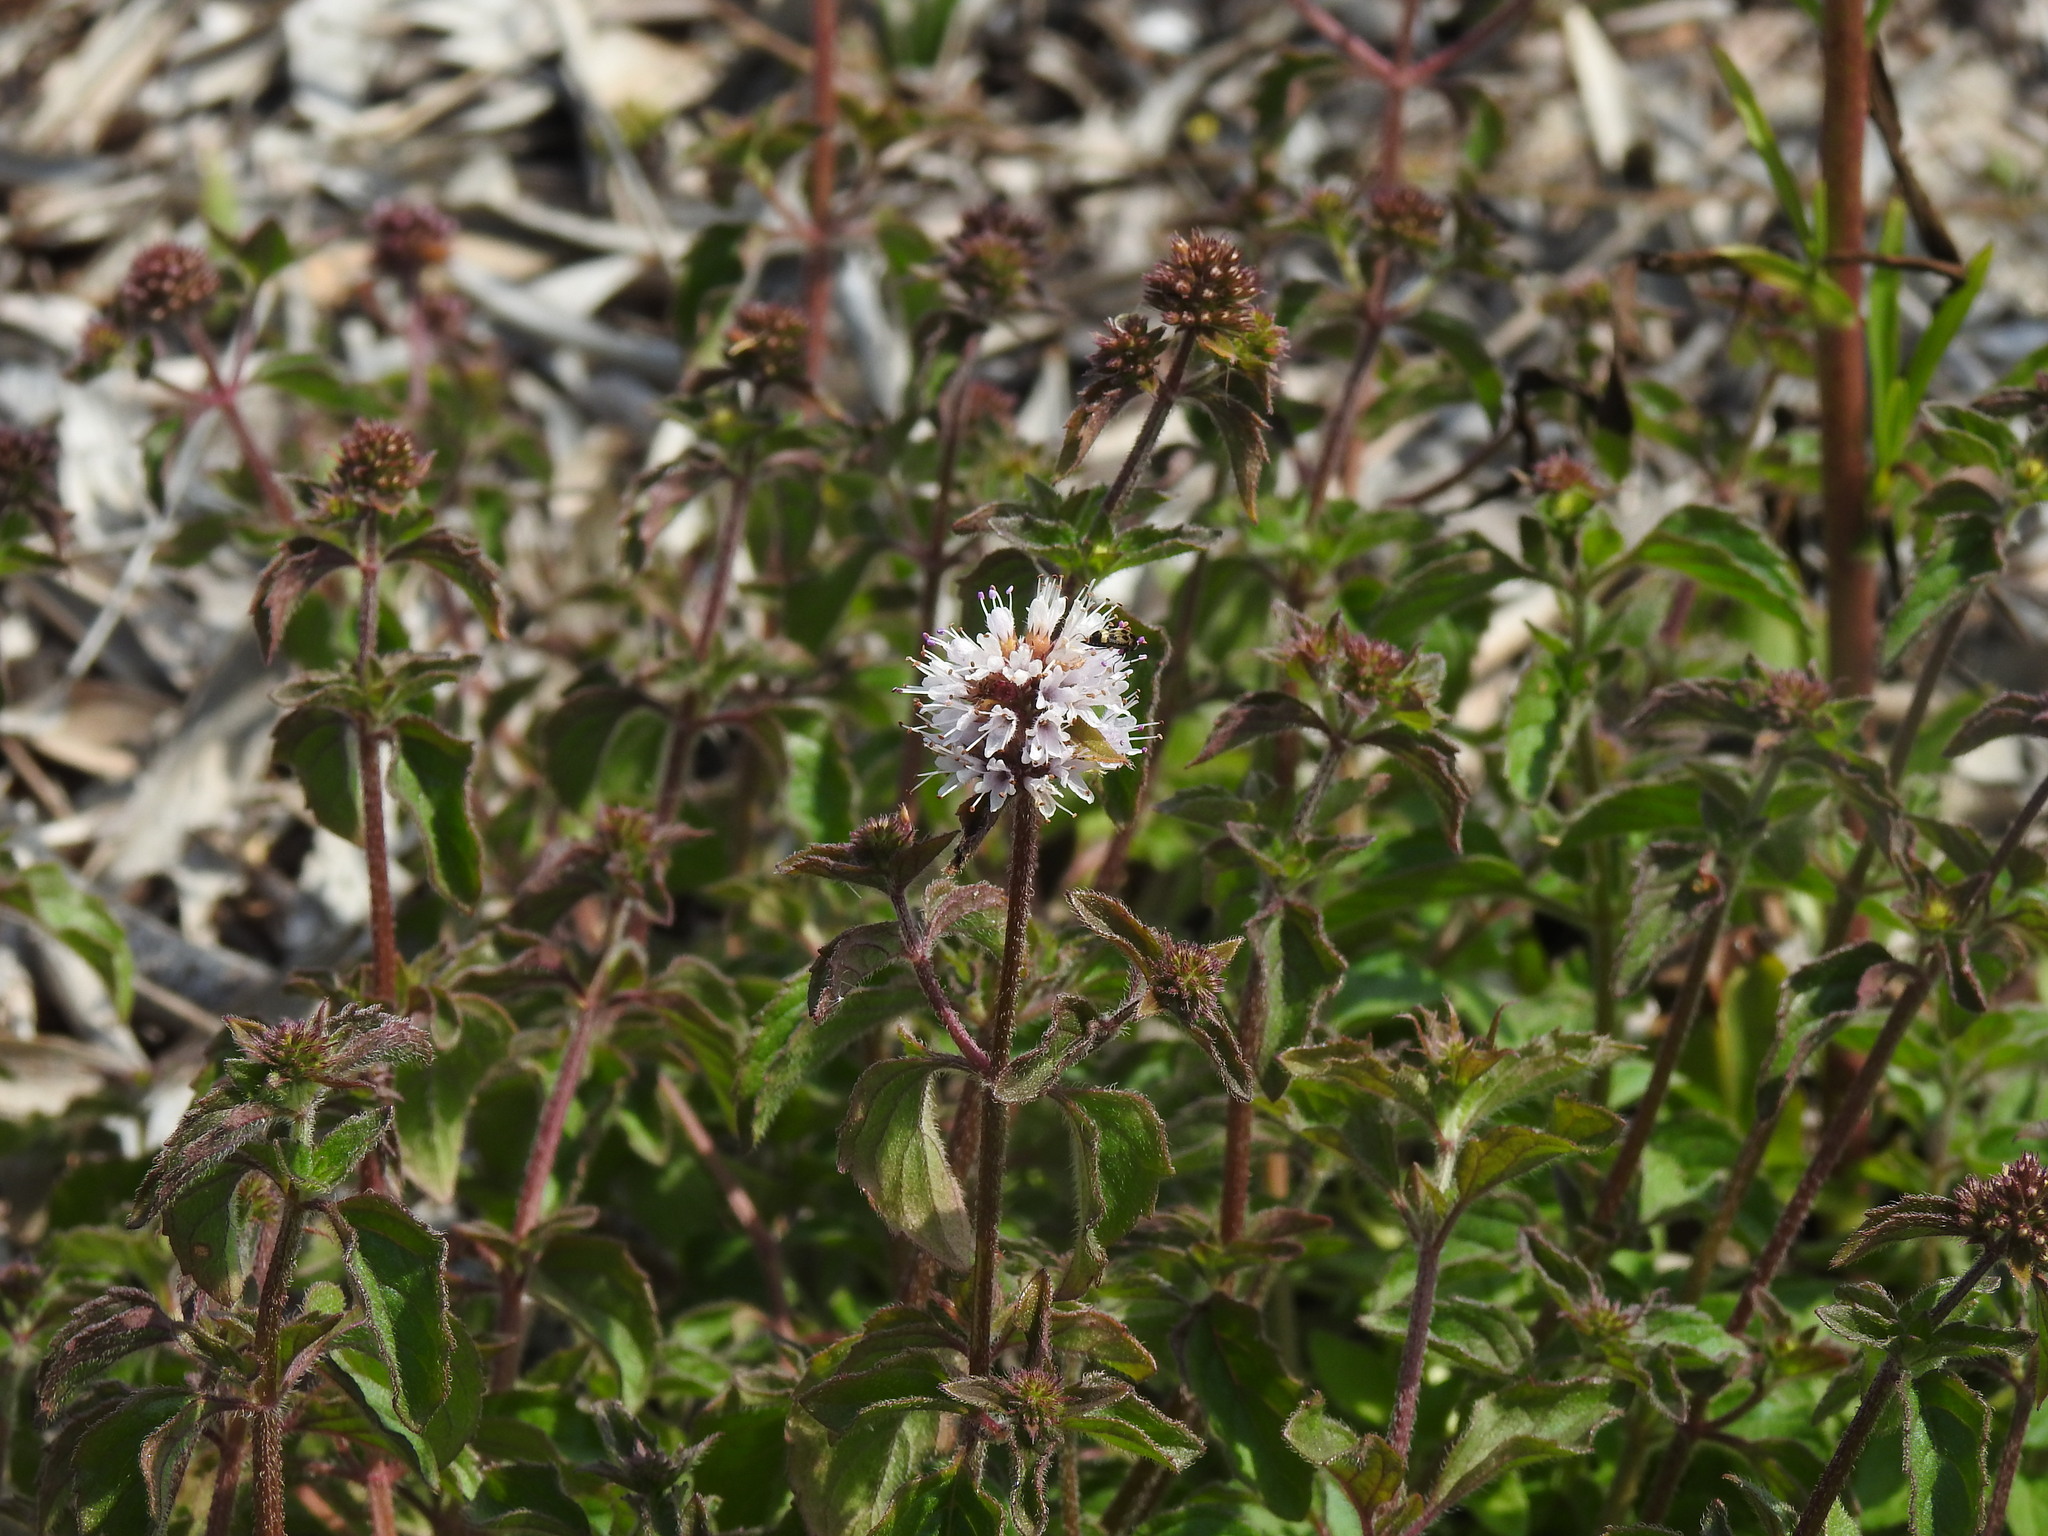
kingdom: Plantae
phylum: Tracheophyta
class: Magnoliopsida
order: Lamiales
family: Lamiaceae
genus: Mentha
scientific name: Mentha aquatica
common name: Water mint
